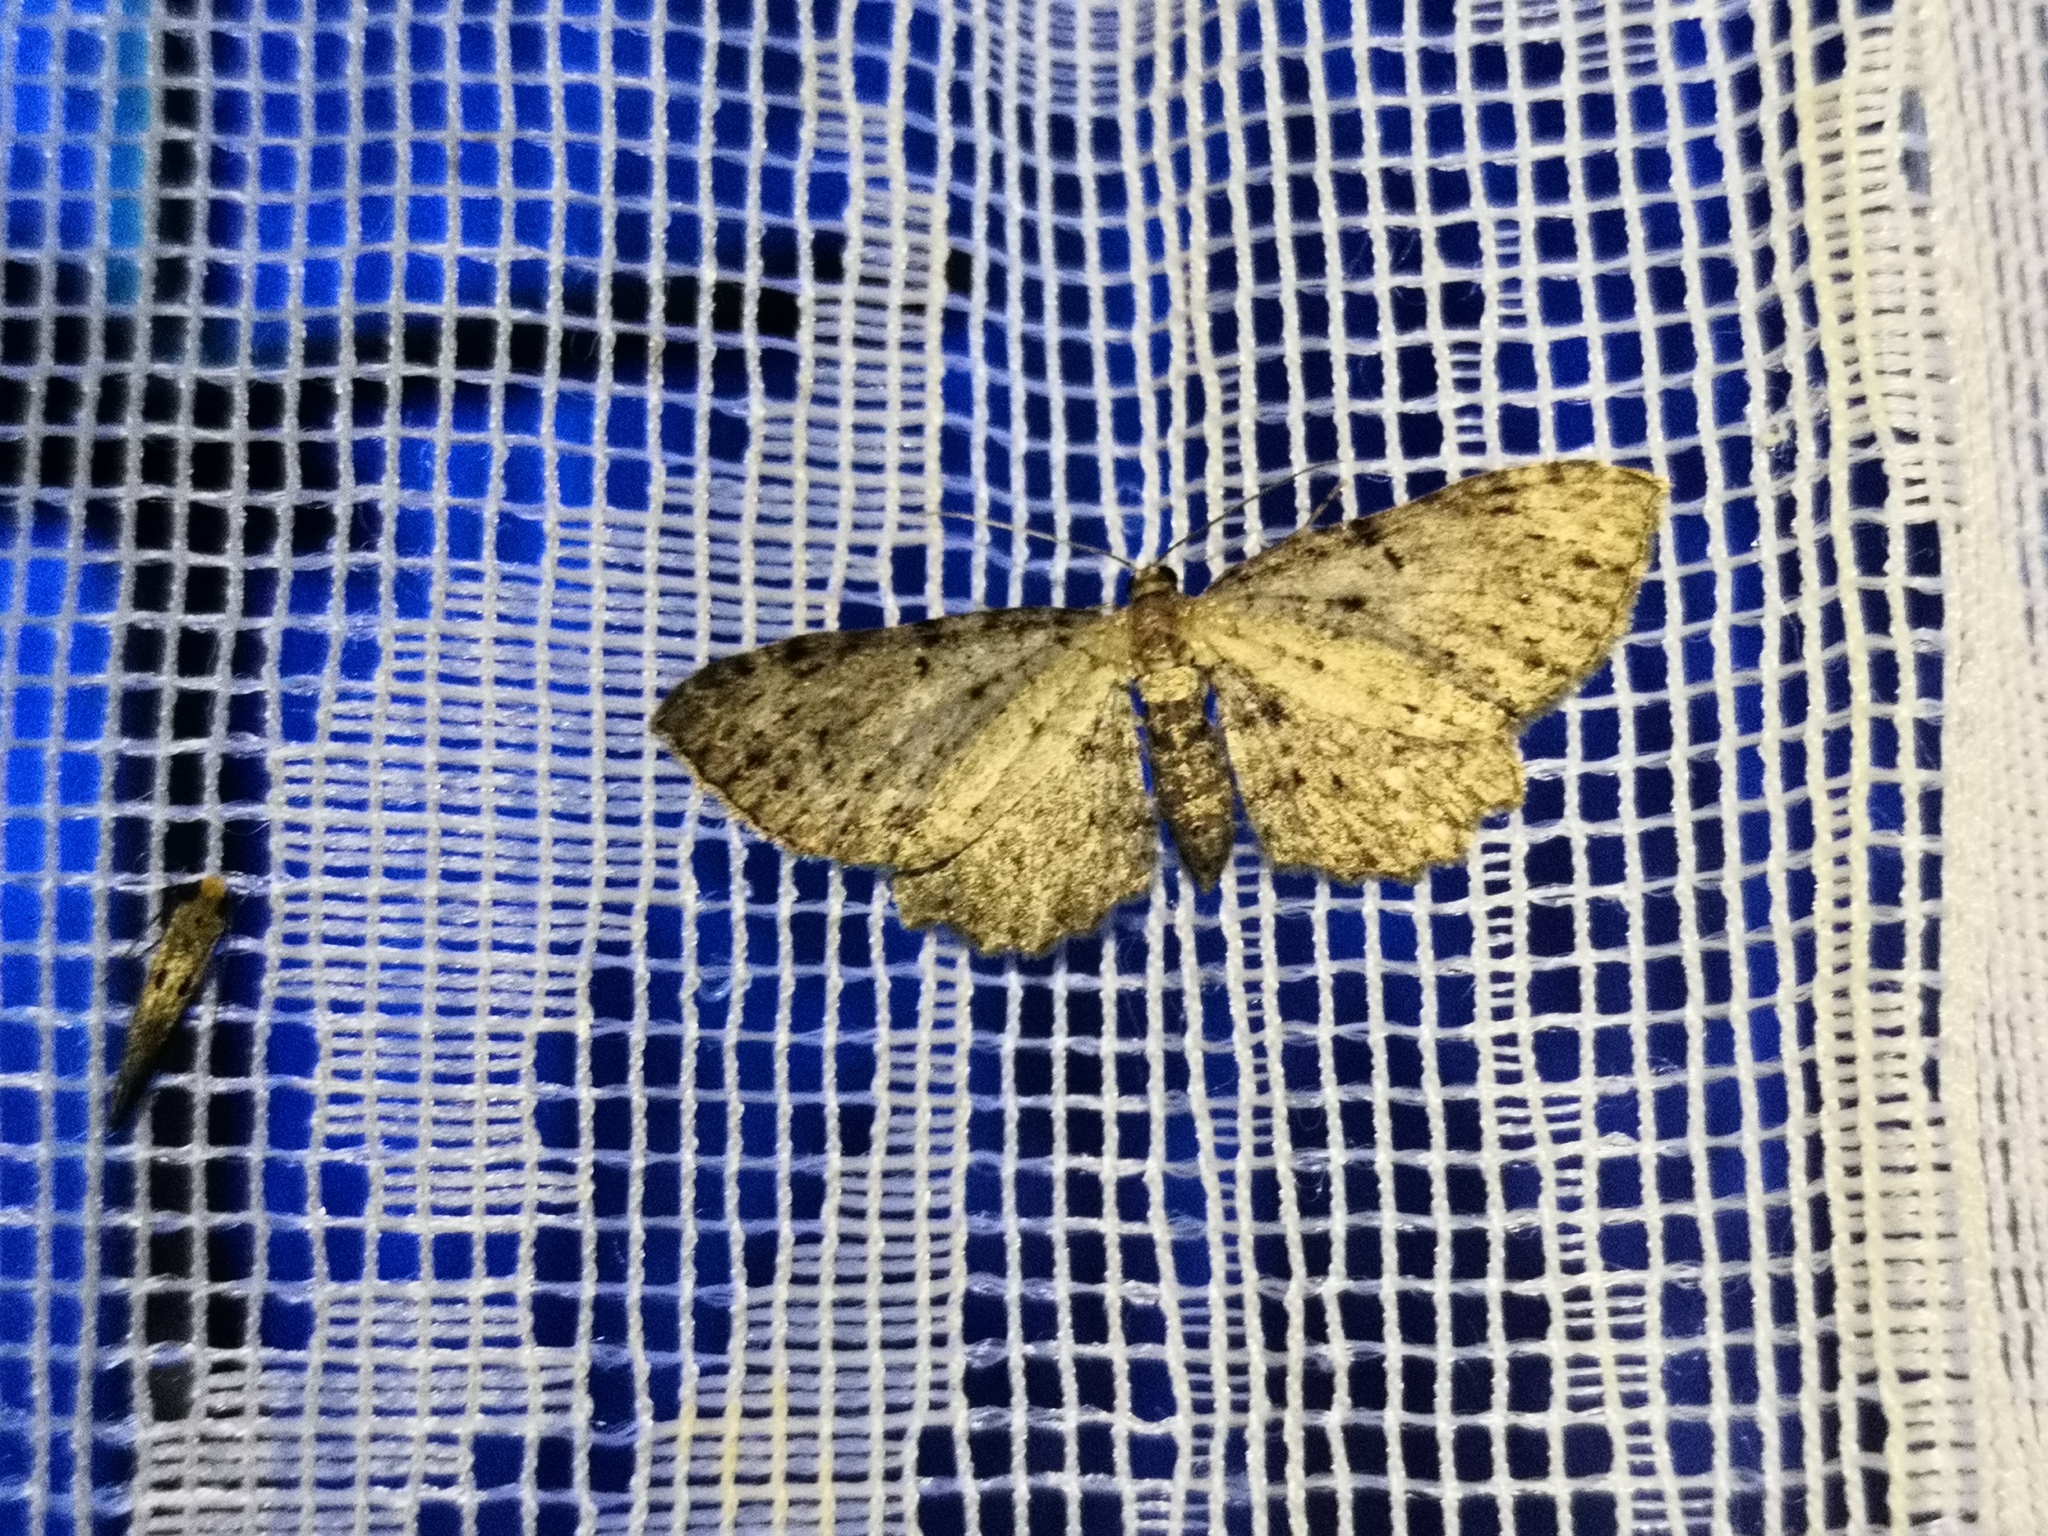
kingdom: Animalia
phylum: Arthropoda
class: Insecta
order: Lepidoptera
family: Geometridae
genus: Anticollix
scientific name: Anticollix sparsata
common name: Dentated pug
